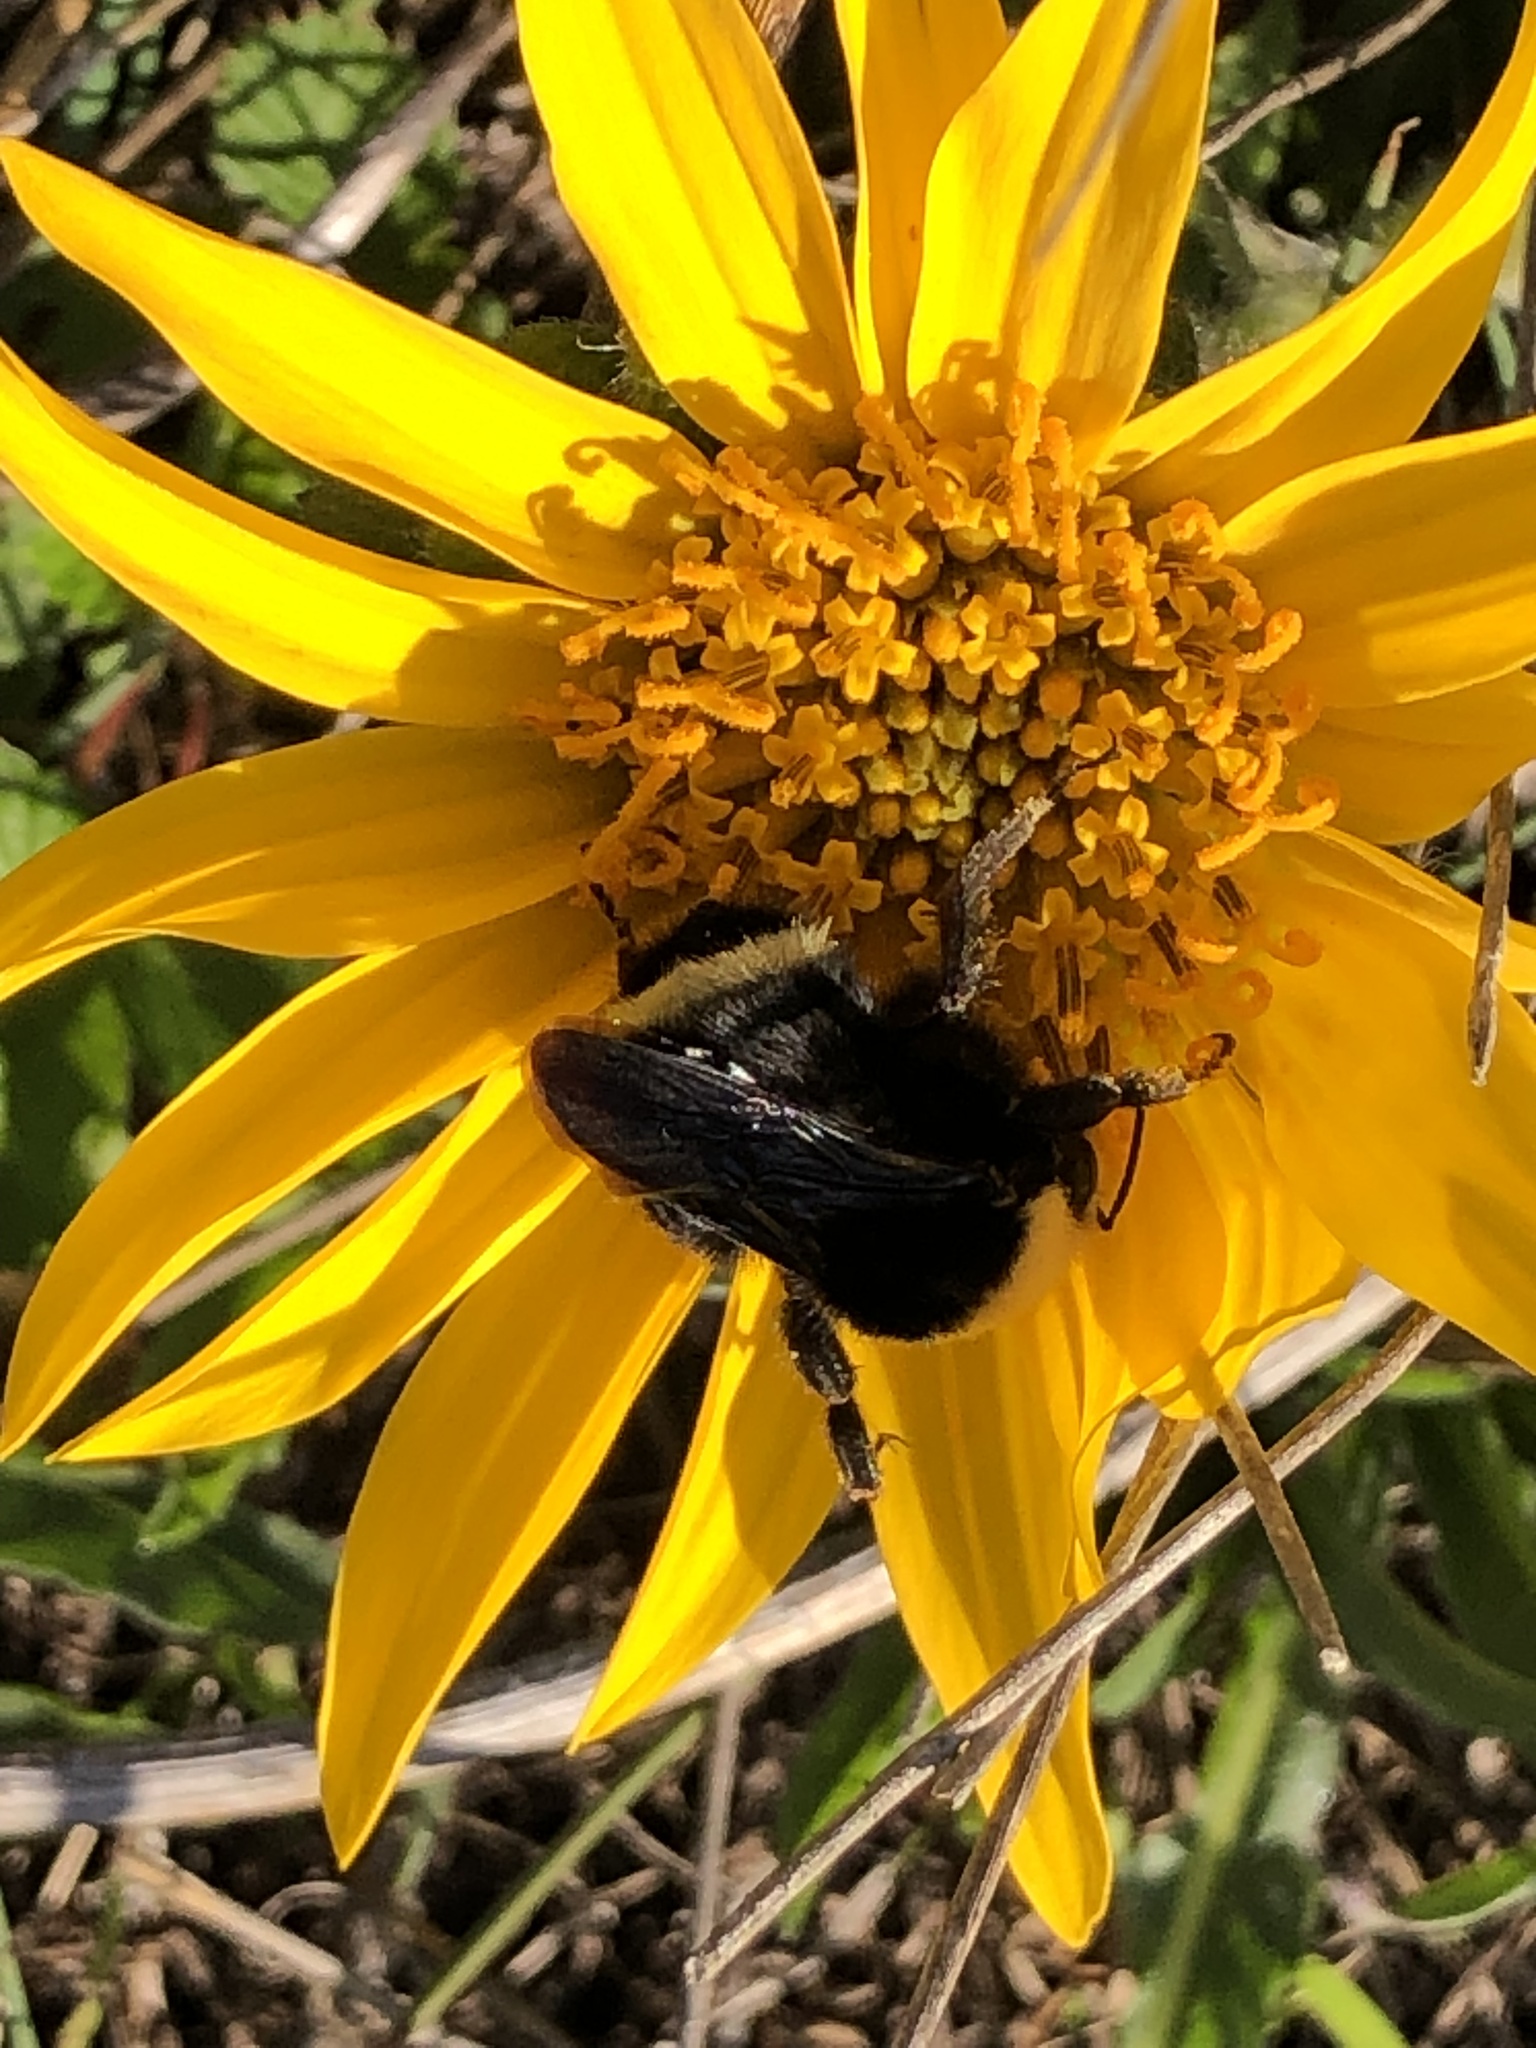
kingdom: Plantae
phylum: Tracheophyta
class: Magnoliopsida
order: Asterales
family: Asteraceae
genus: Wyethia
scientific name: Wyethia angustifolia
